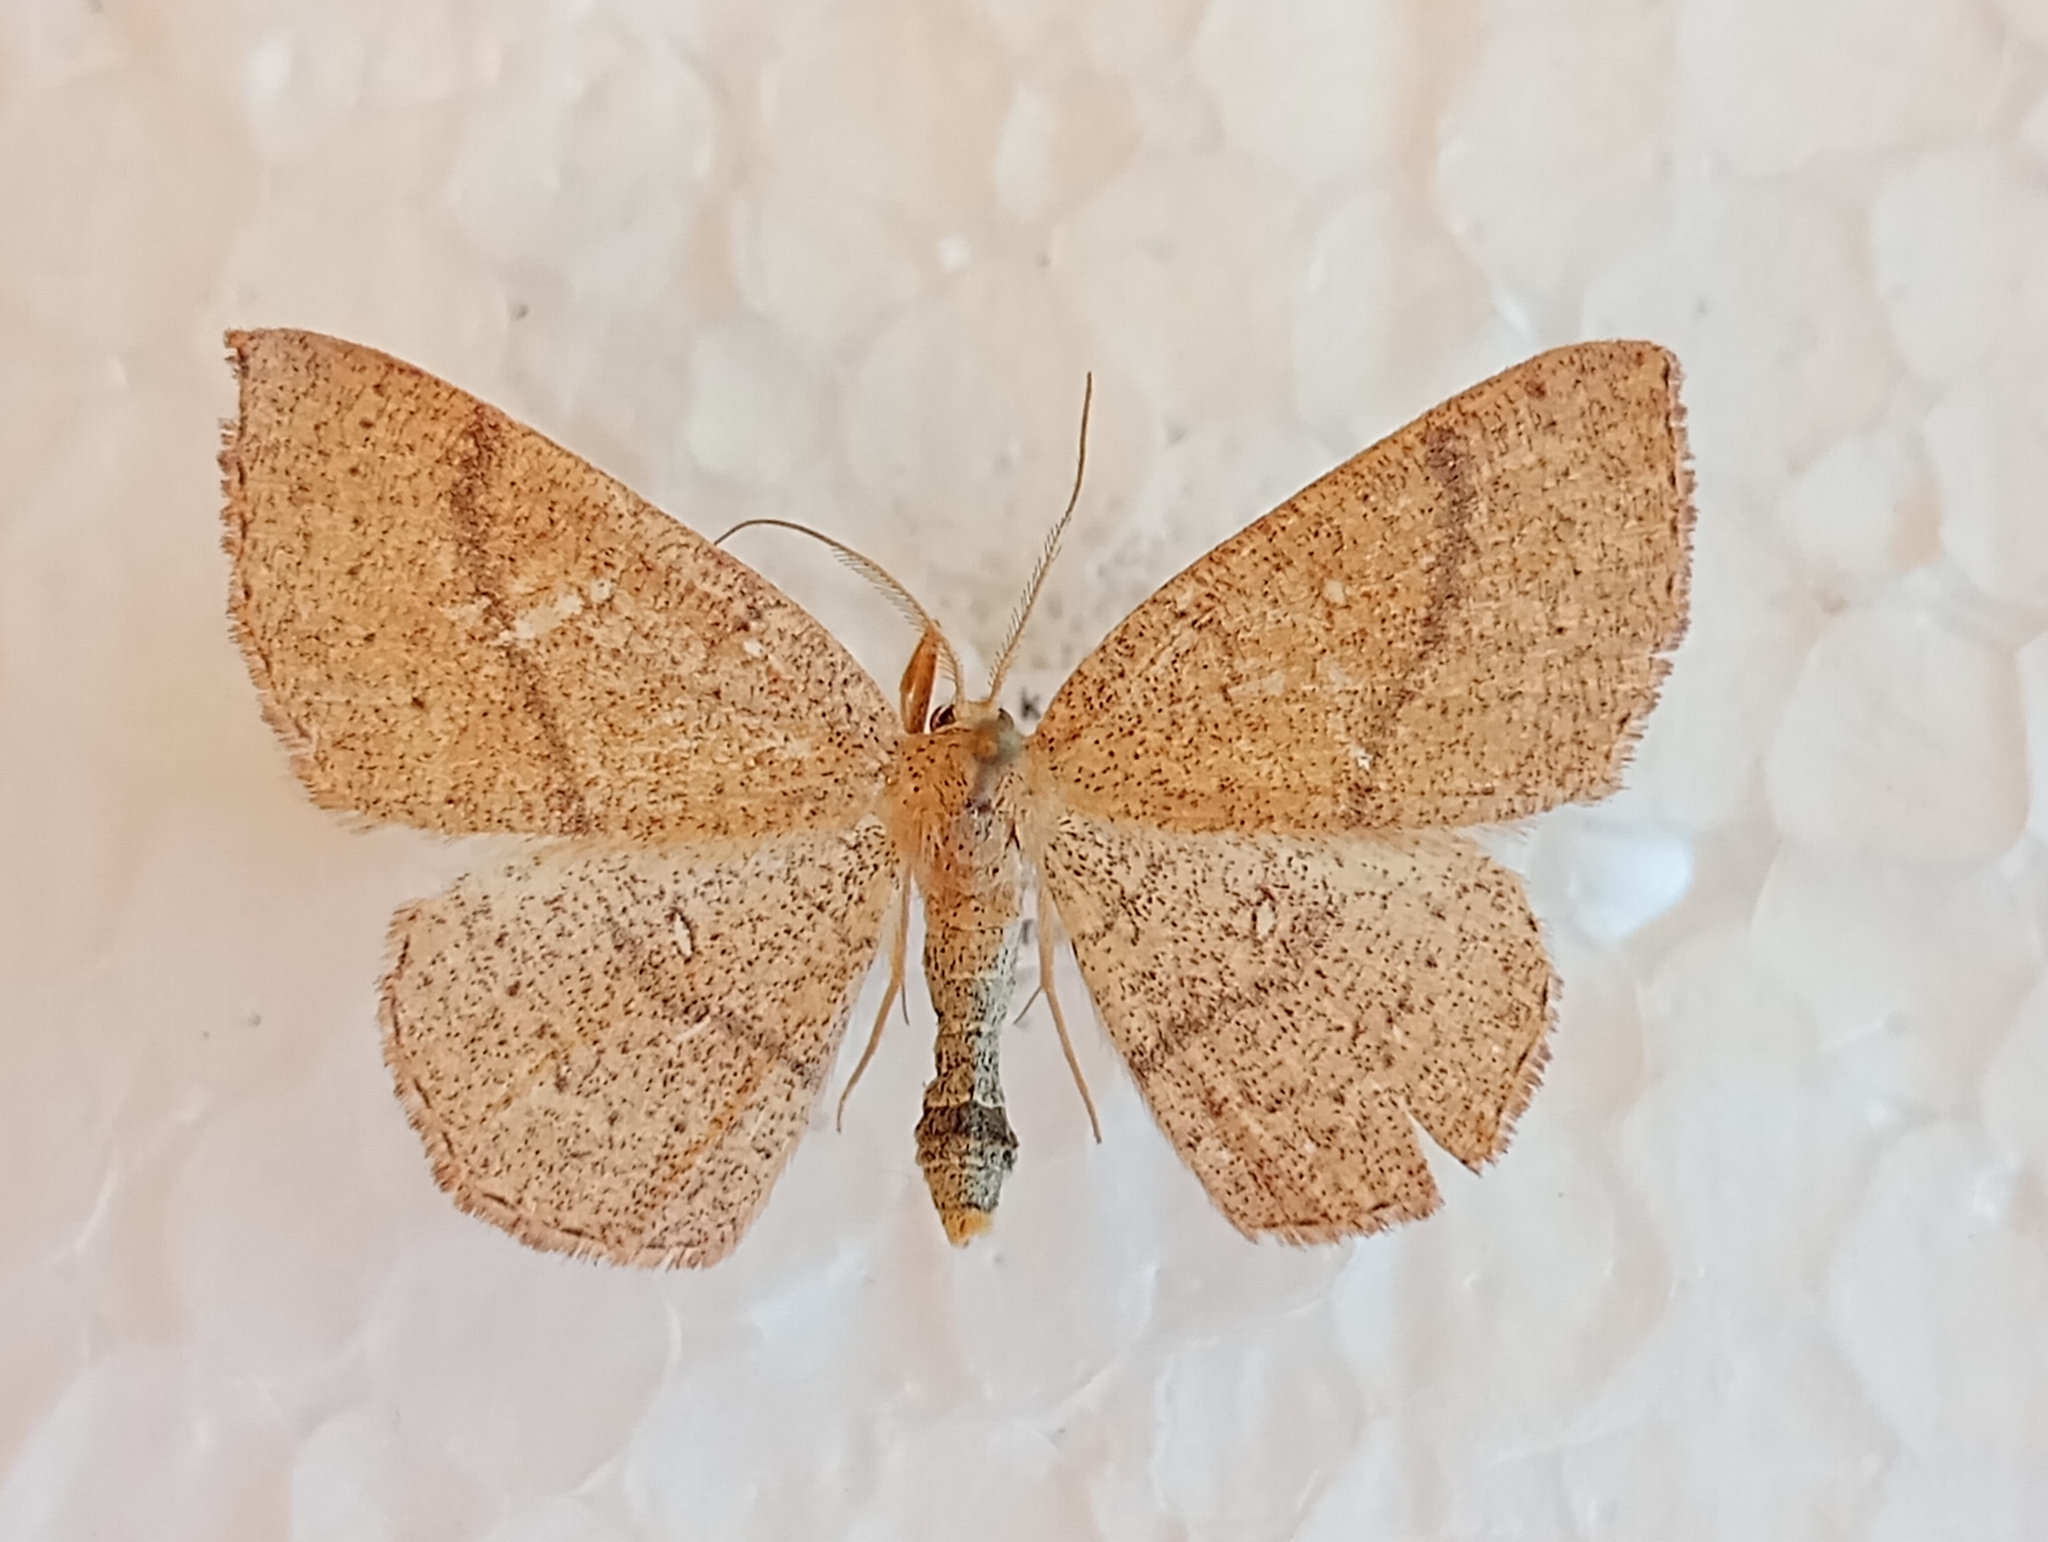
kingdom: Animalia
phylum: Arthropoda
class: Insecta
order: Lepidoptera
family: Geometridae
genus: Cyclophora
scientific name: Cyclophora ruficiliaria
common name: Jersey mocha
